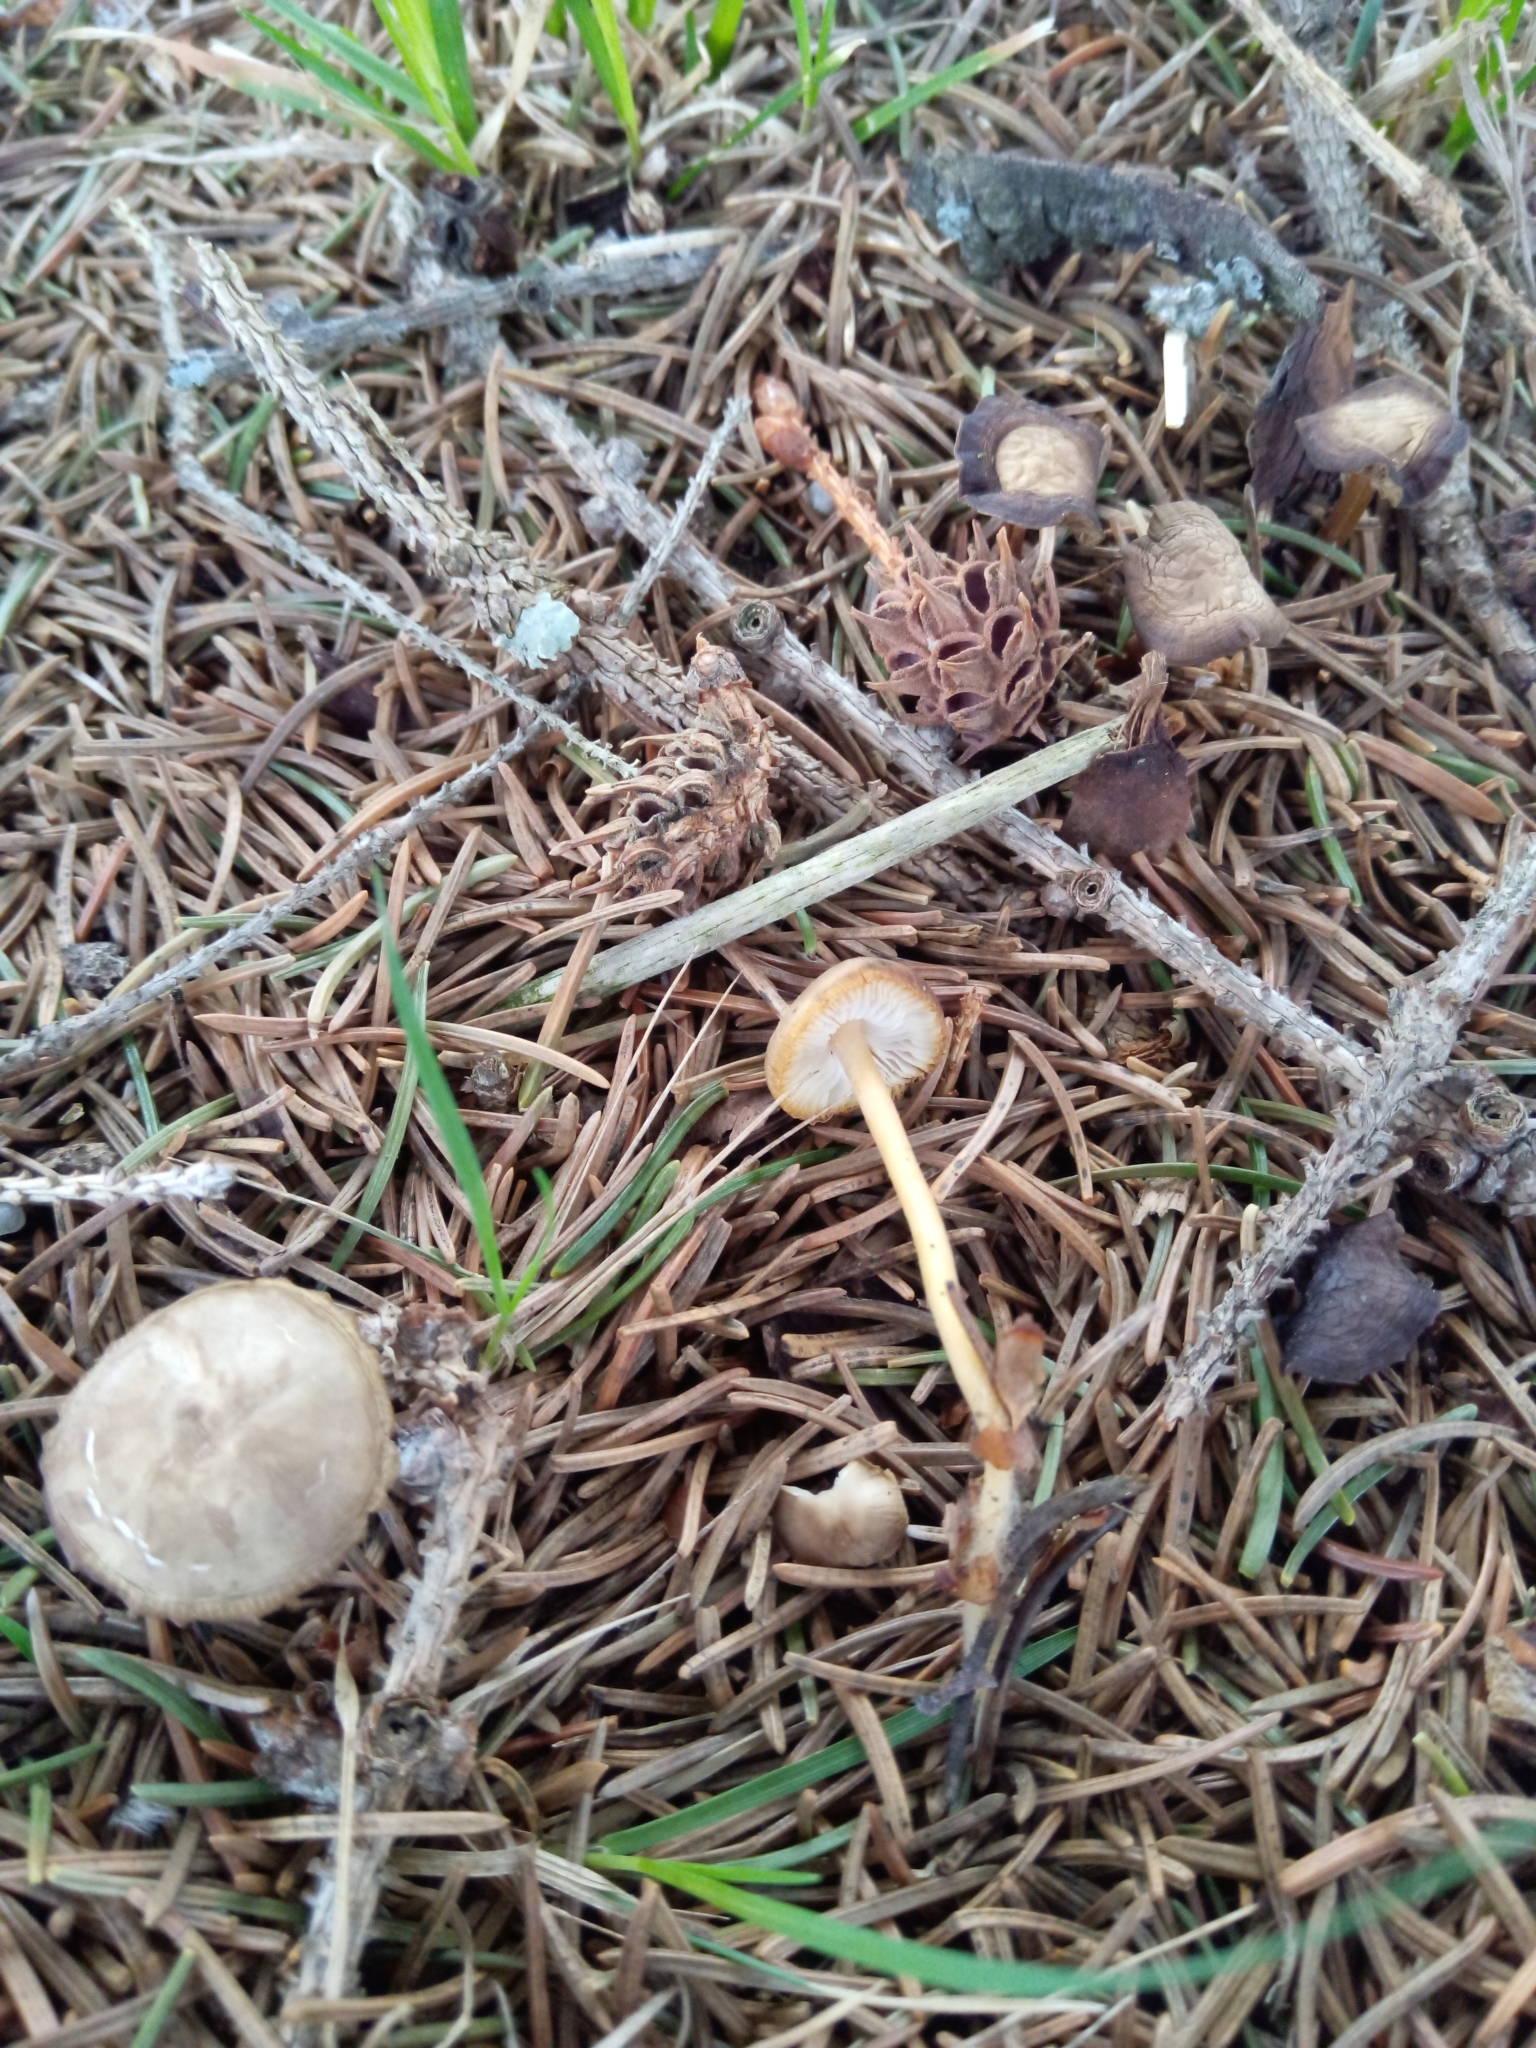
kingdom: Fungi
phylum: Basidiomycota
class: Agaricomycetes
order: Agaricales
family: Physalacriaceae
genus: Strobilurus
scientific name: Strobilurus esculentus
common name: Sprucecone cap
